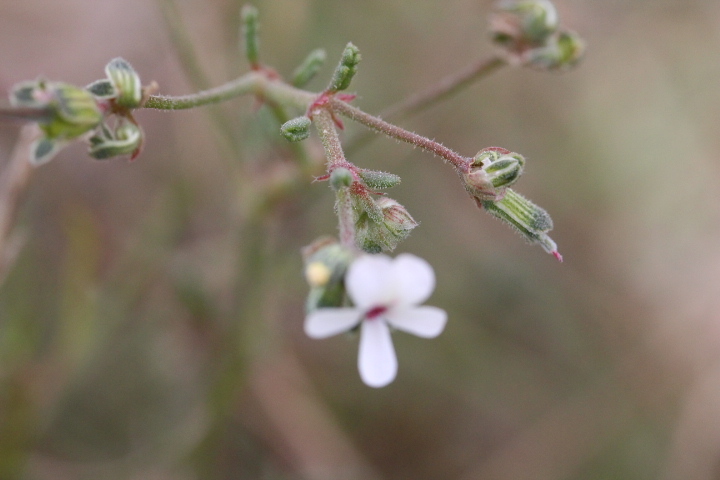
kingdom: Plantae
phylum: Tracheophyta
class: Magnoliopsida
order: Geraniales
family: Geraniaceae
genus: Pelargonium
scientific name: Pelargonium senecioides
